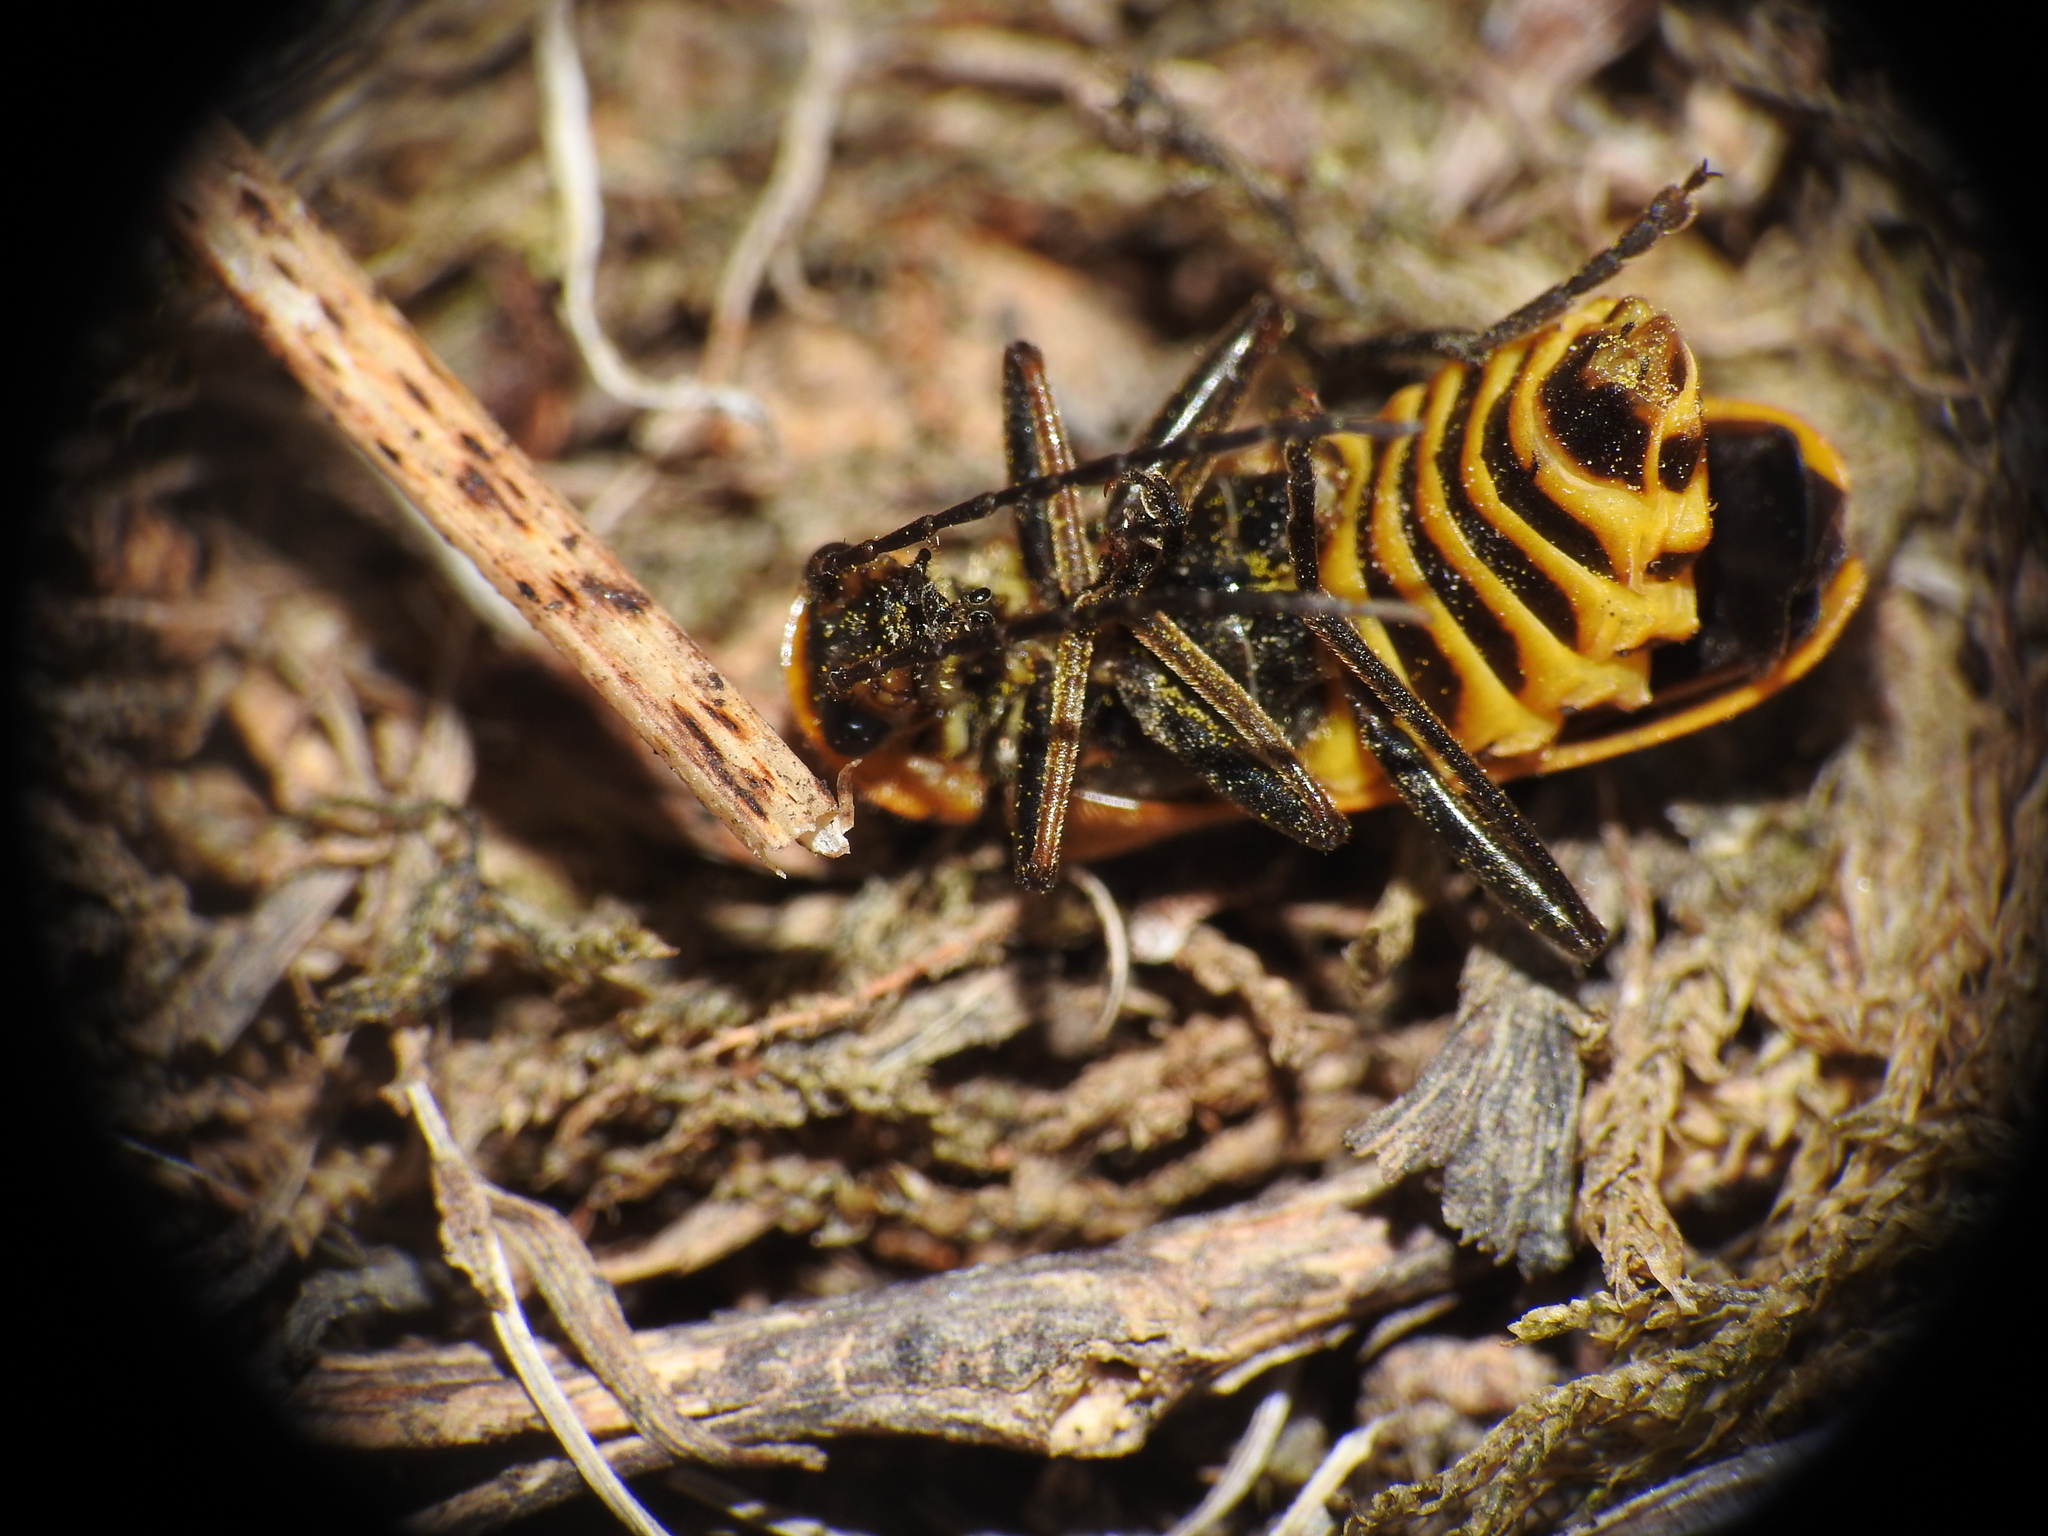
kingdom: Animalia
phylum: Arthropoda
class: Insecta
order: Coleoptera
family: Cantharidae
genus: Chauliognathus
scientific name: Chauliognathus pensylvanicus
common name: Goldenrod soldier beetle
